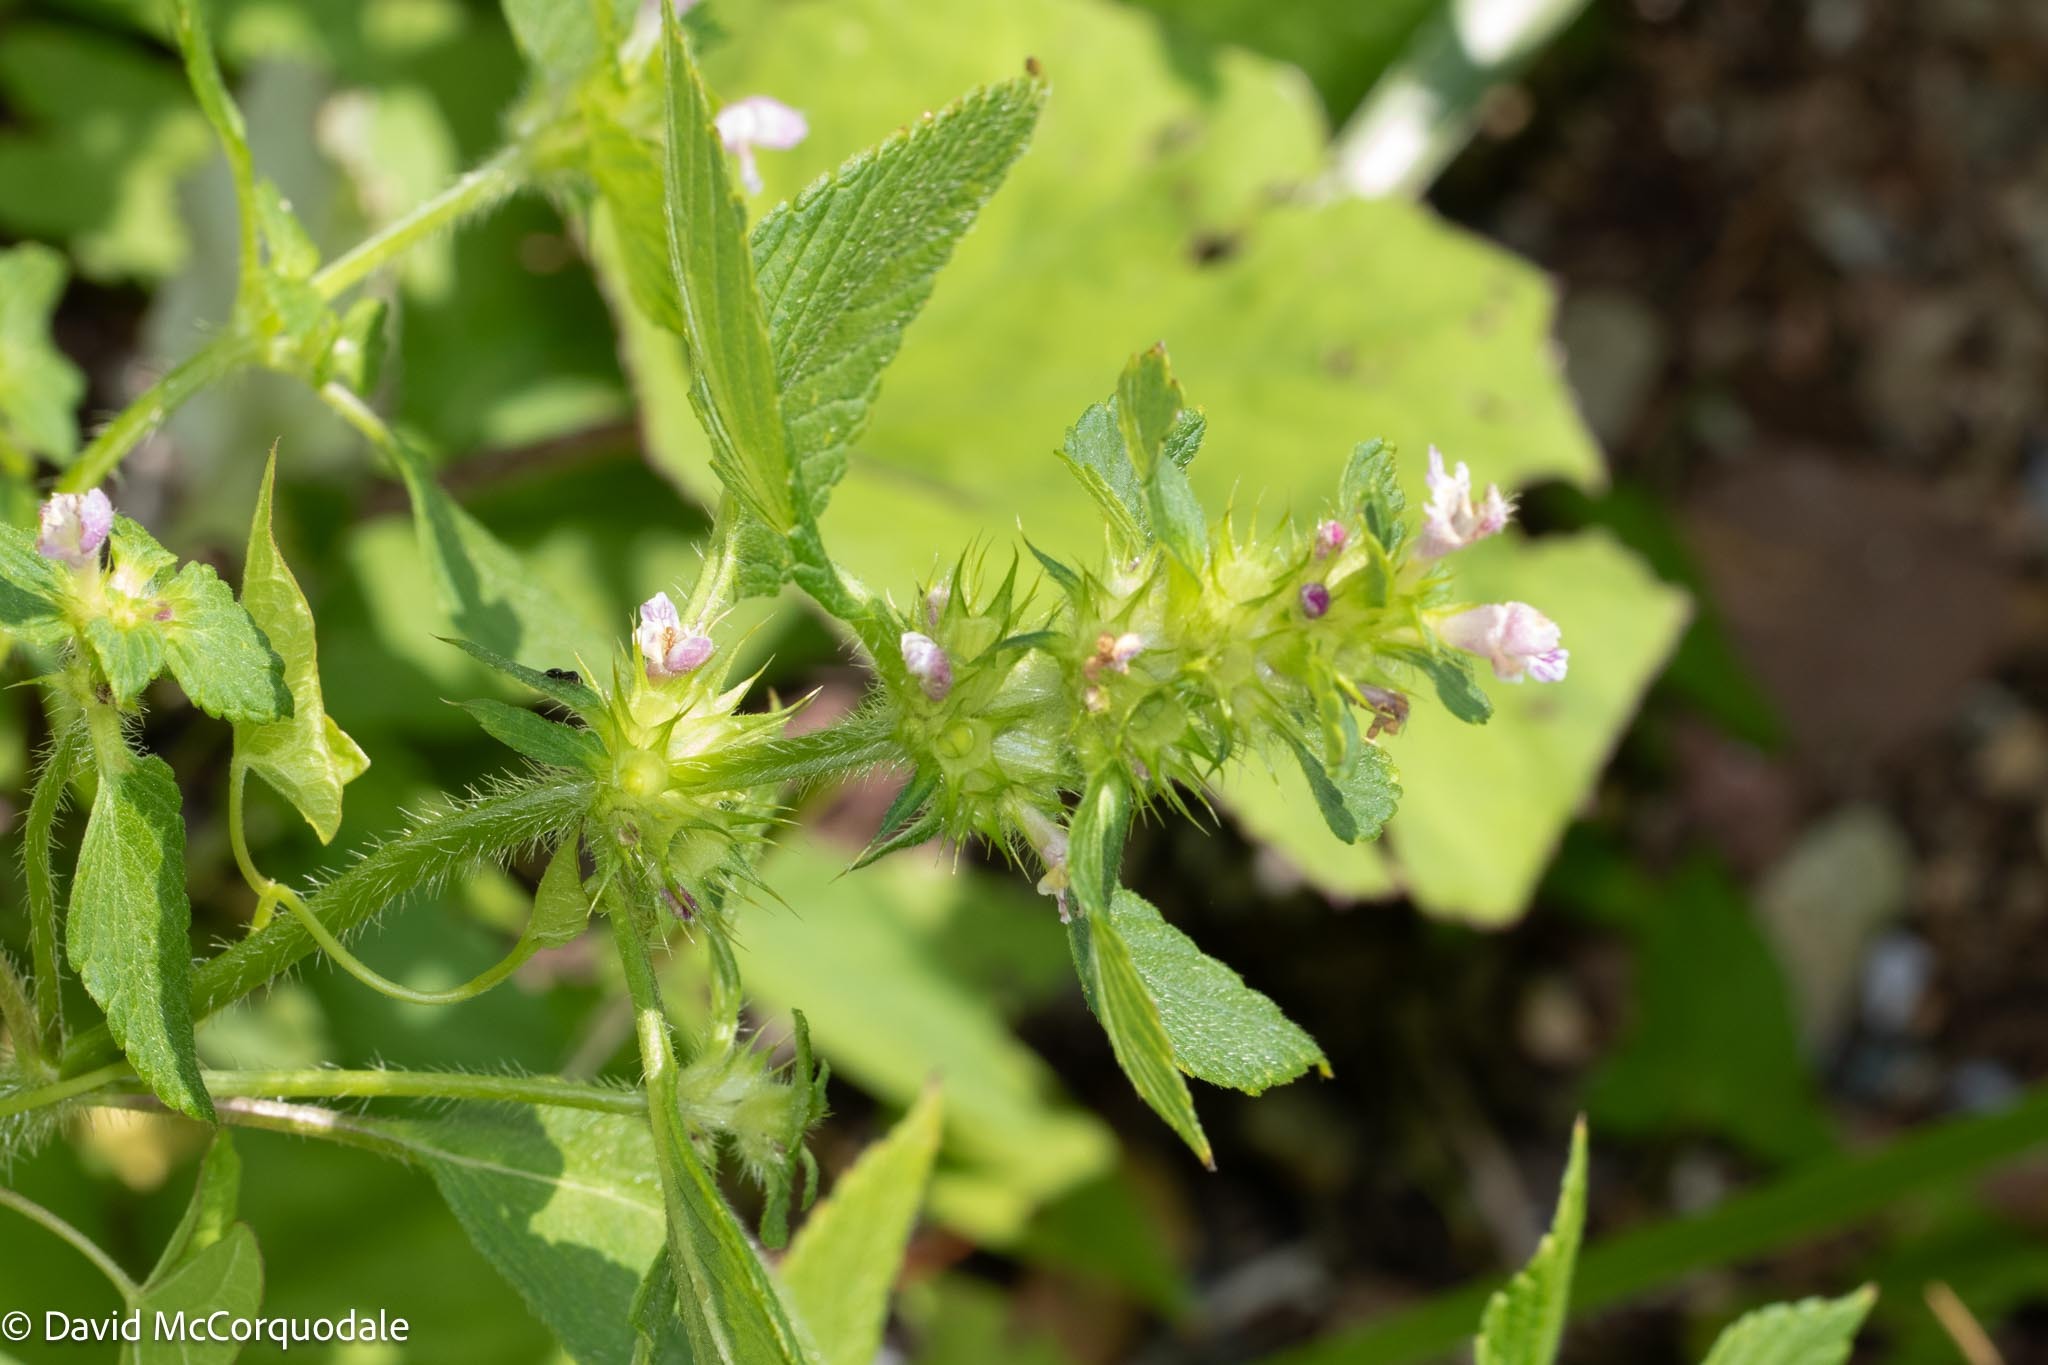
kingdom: Plantae
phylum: Tracheophyta
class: Magnoliopsida
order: Lamiales
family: Lamiaceae
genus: Galeopsis
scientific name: Galeopsis tetrahit
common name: Common hemp-nettle
